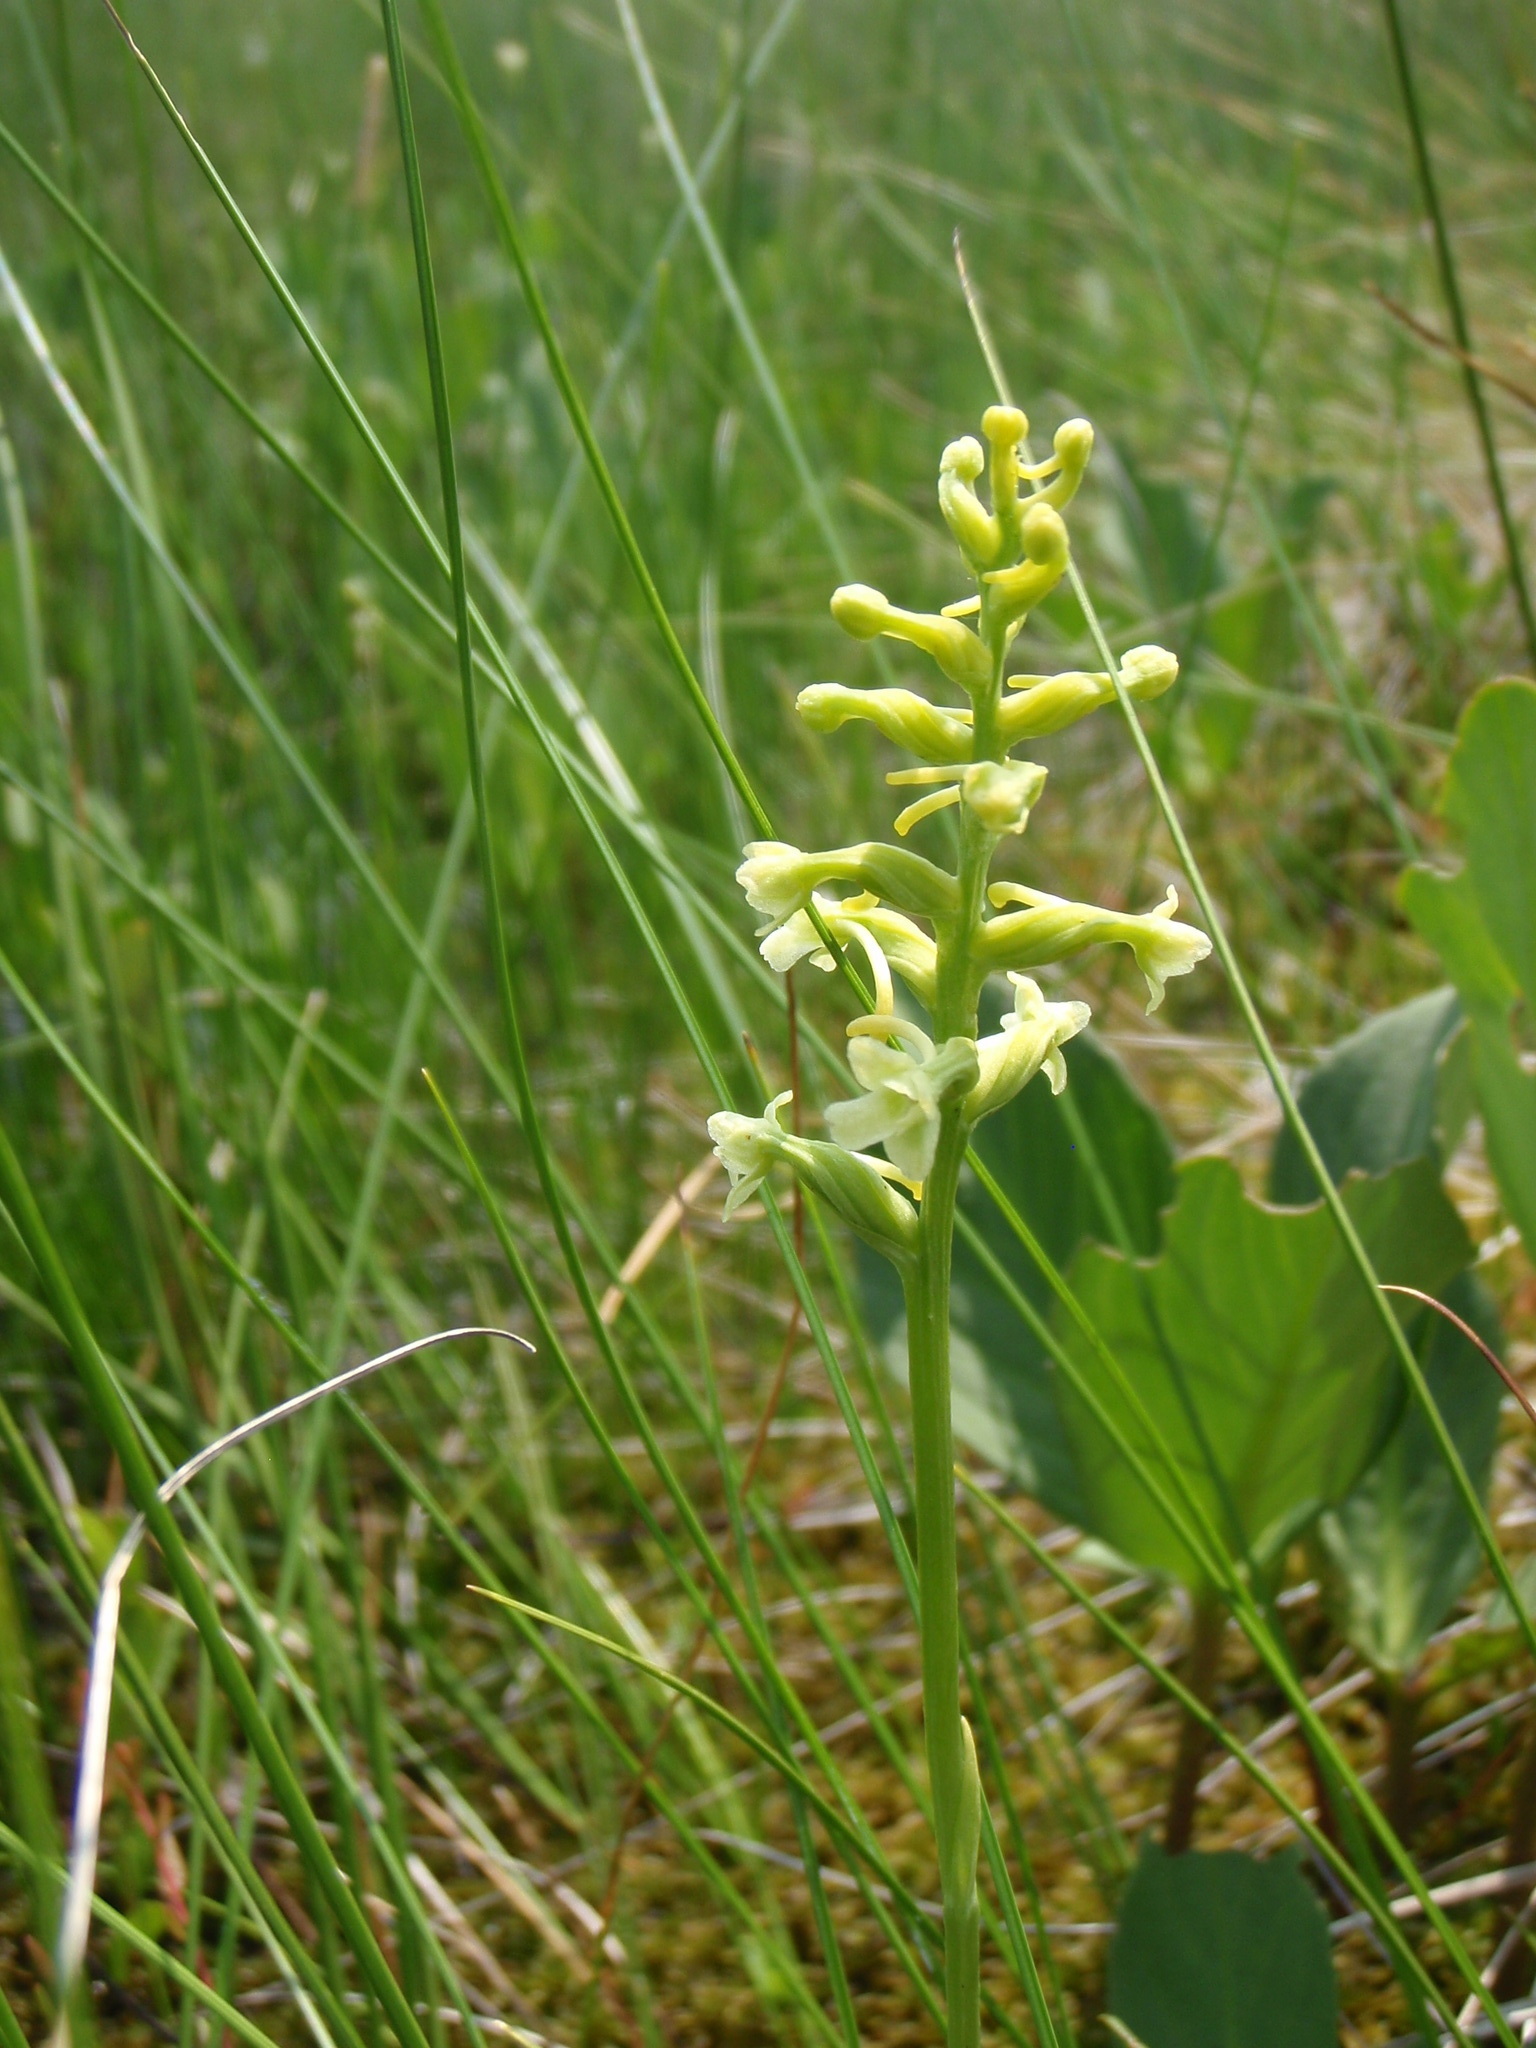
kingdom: Plantae
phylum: Tracheophyta
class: Liliopsida
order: Asparagales
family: Orchidaceae
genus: Platanthera
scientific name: Platanthera clavellata
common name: Club-spur orchid
